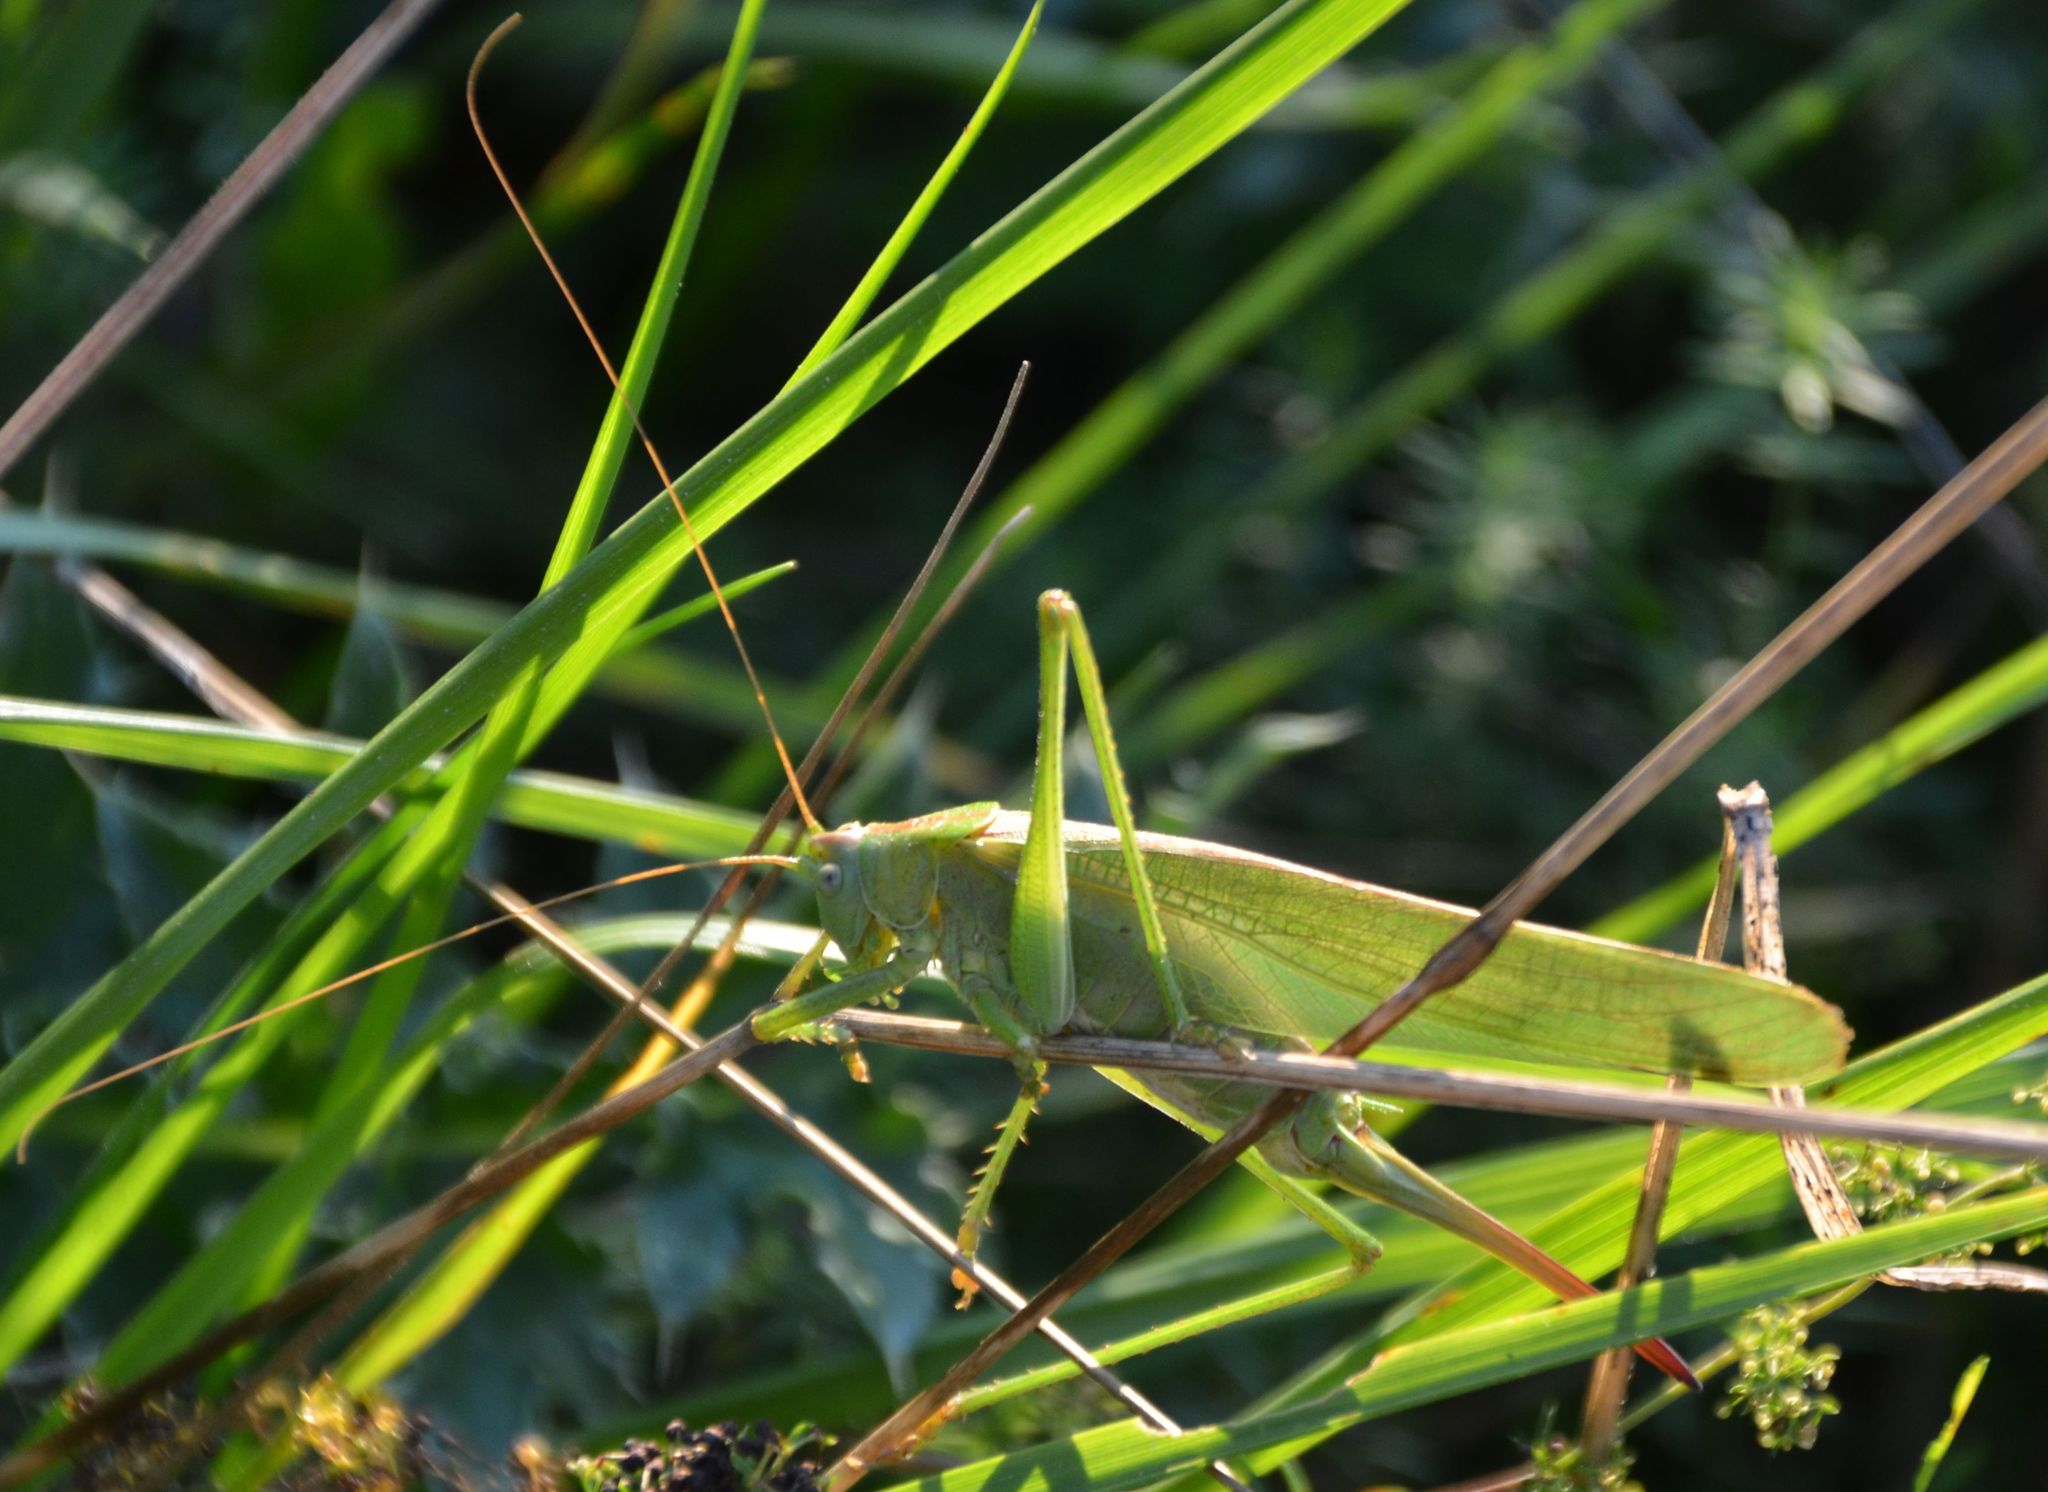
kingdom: Animalia
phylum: Arthropoda
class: Insecta
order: Orthoptera
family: Tettigoniidae
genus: Tettigonia
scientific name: Tettigonia viridissima
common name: Great green bush-cricket
